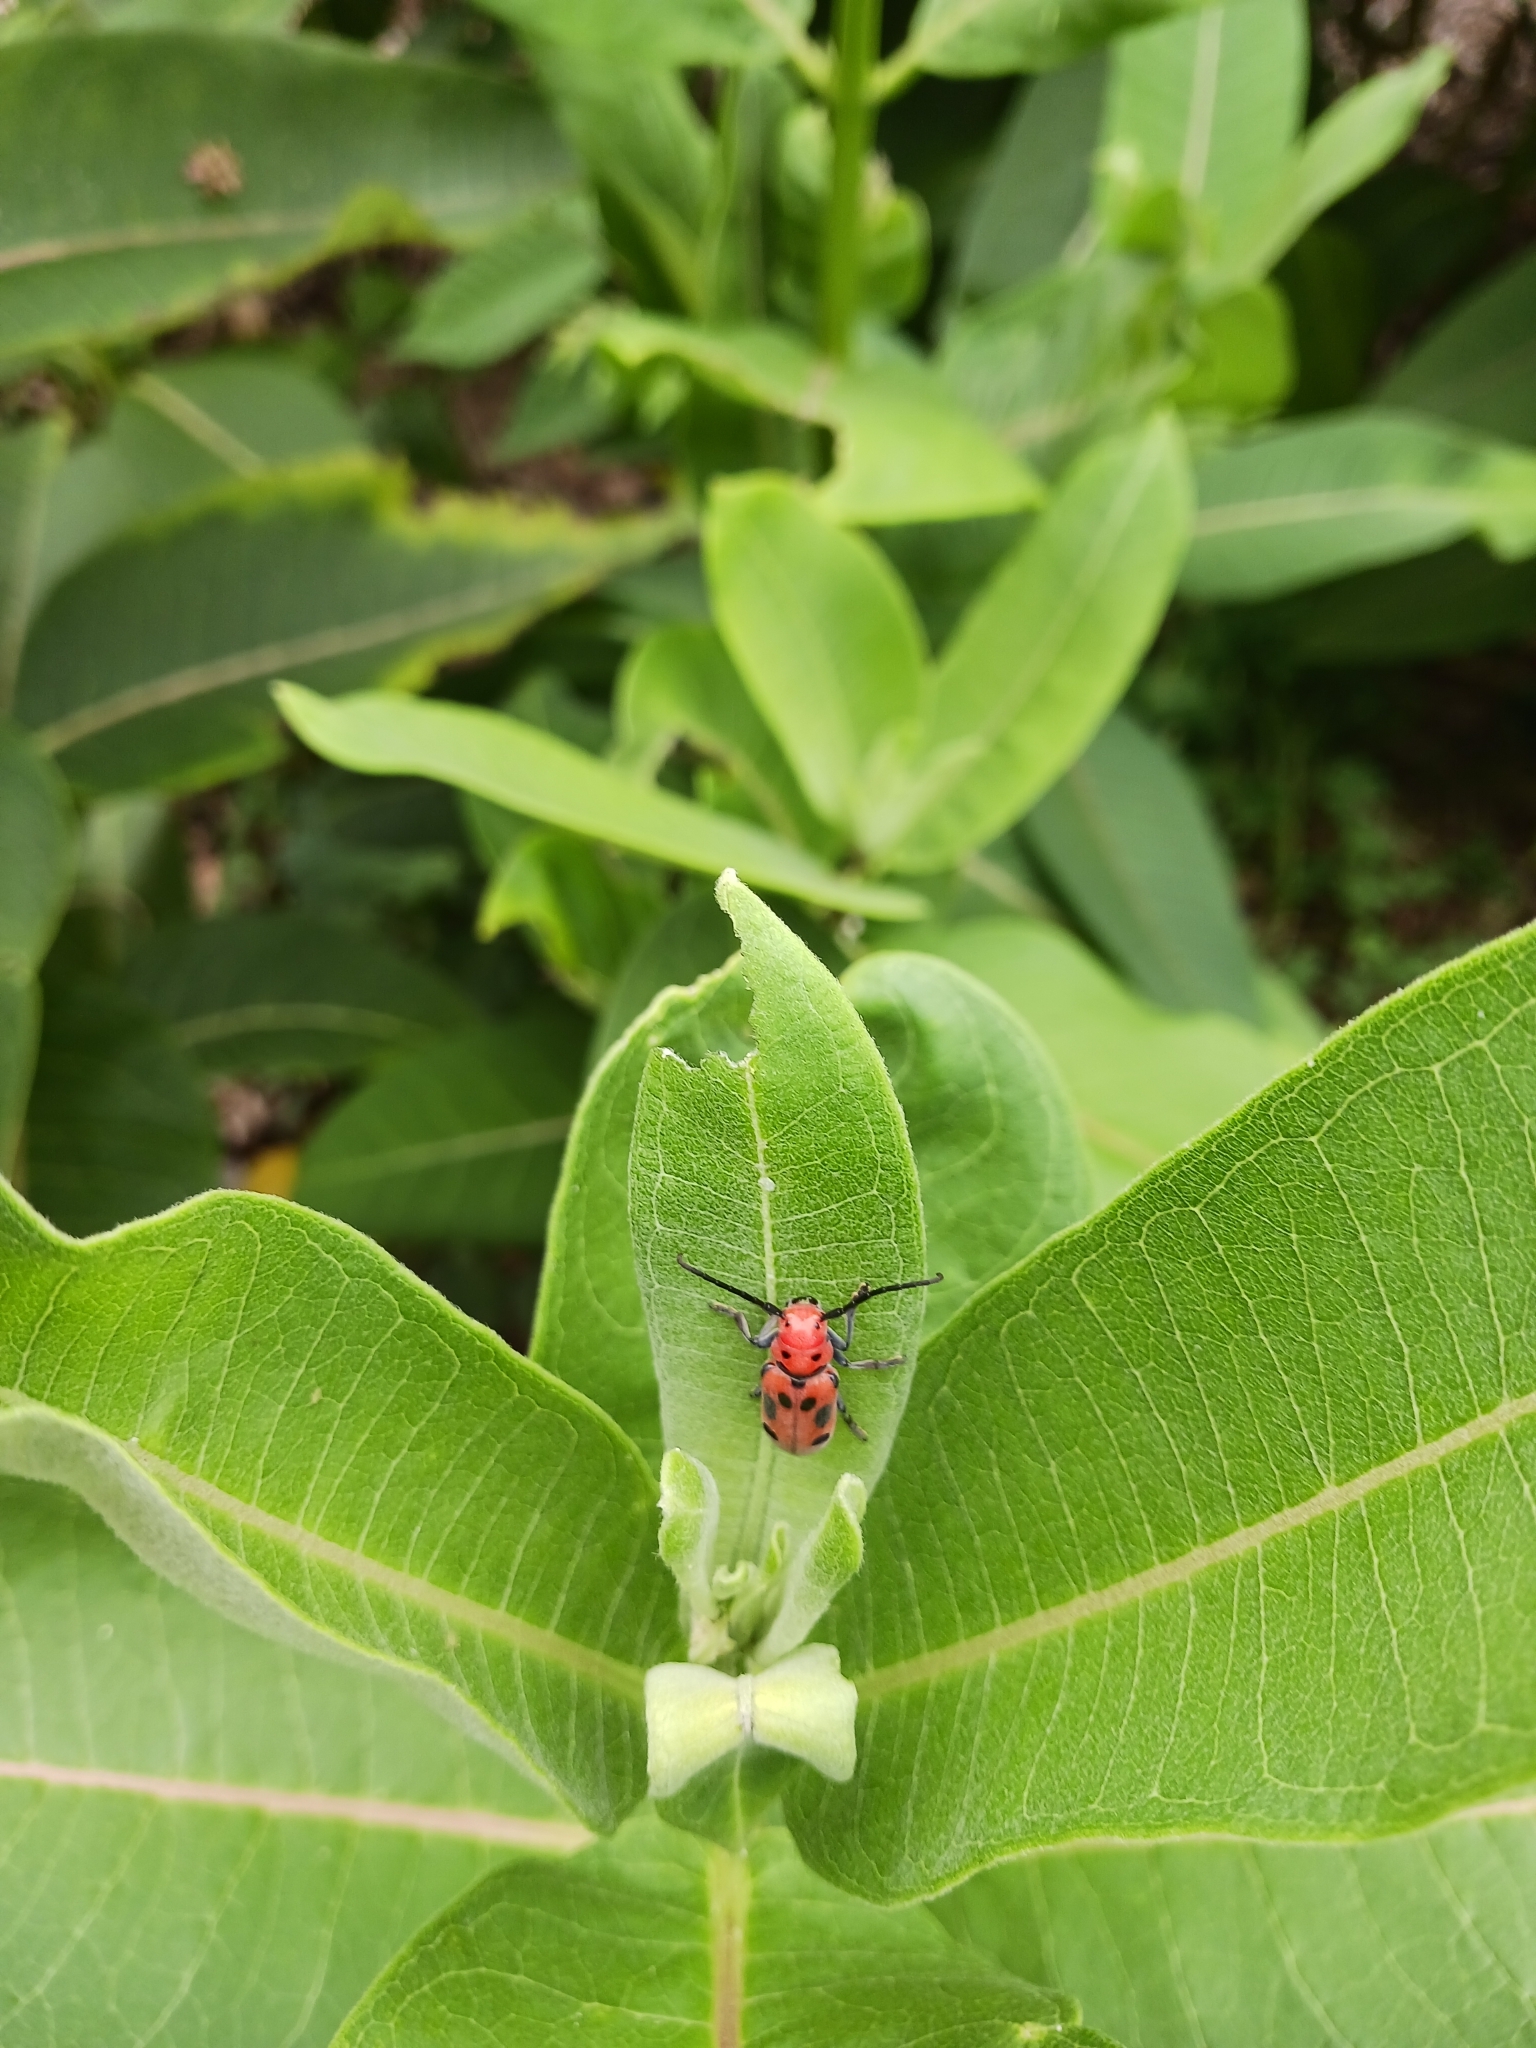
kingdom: Animalia
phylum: Arthropoda
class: Insecta
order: Coleoptera
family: Cerambycidae
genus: Tetraopes
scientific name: Tetraopes tetrophthalmus
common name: Red milkweed beetle
